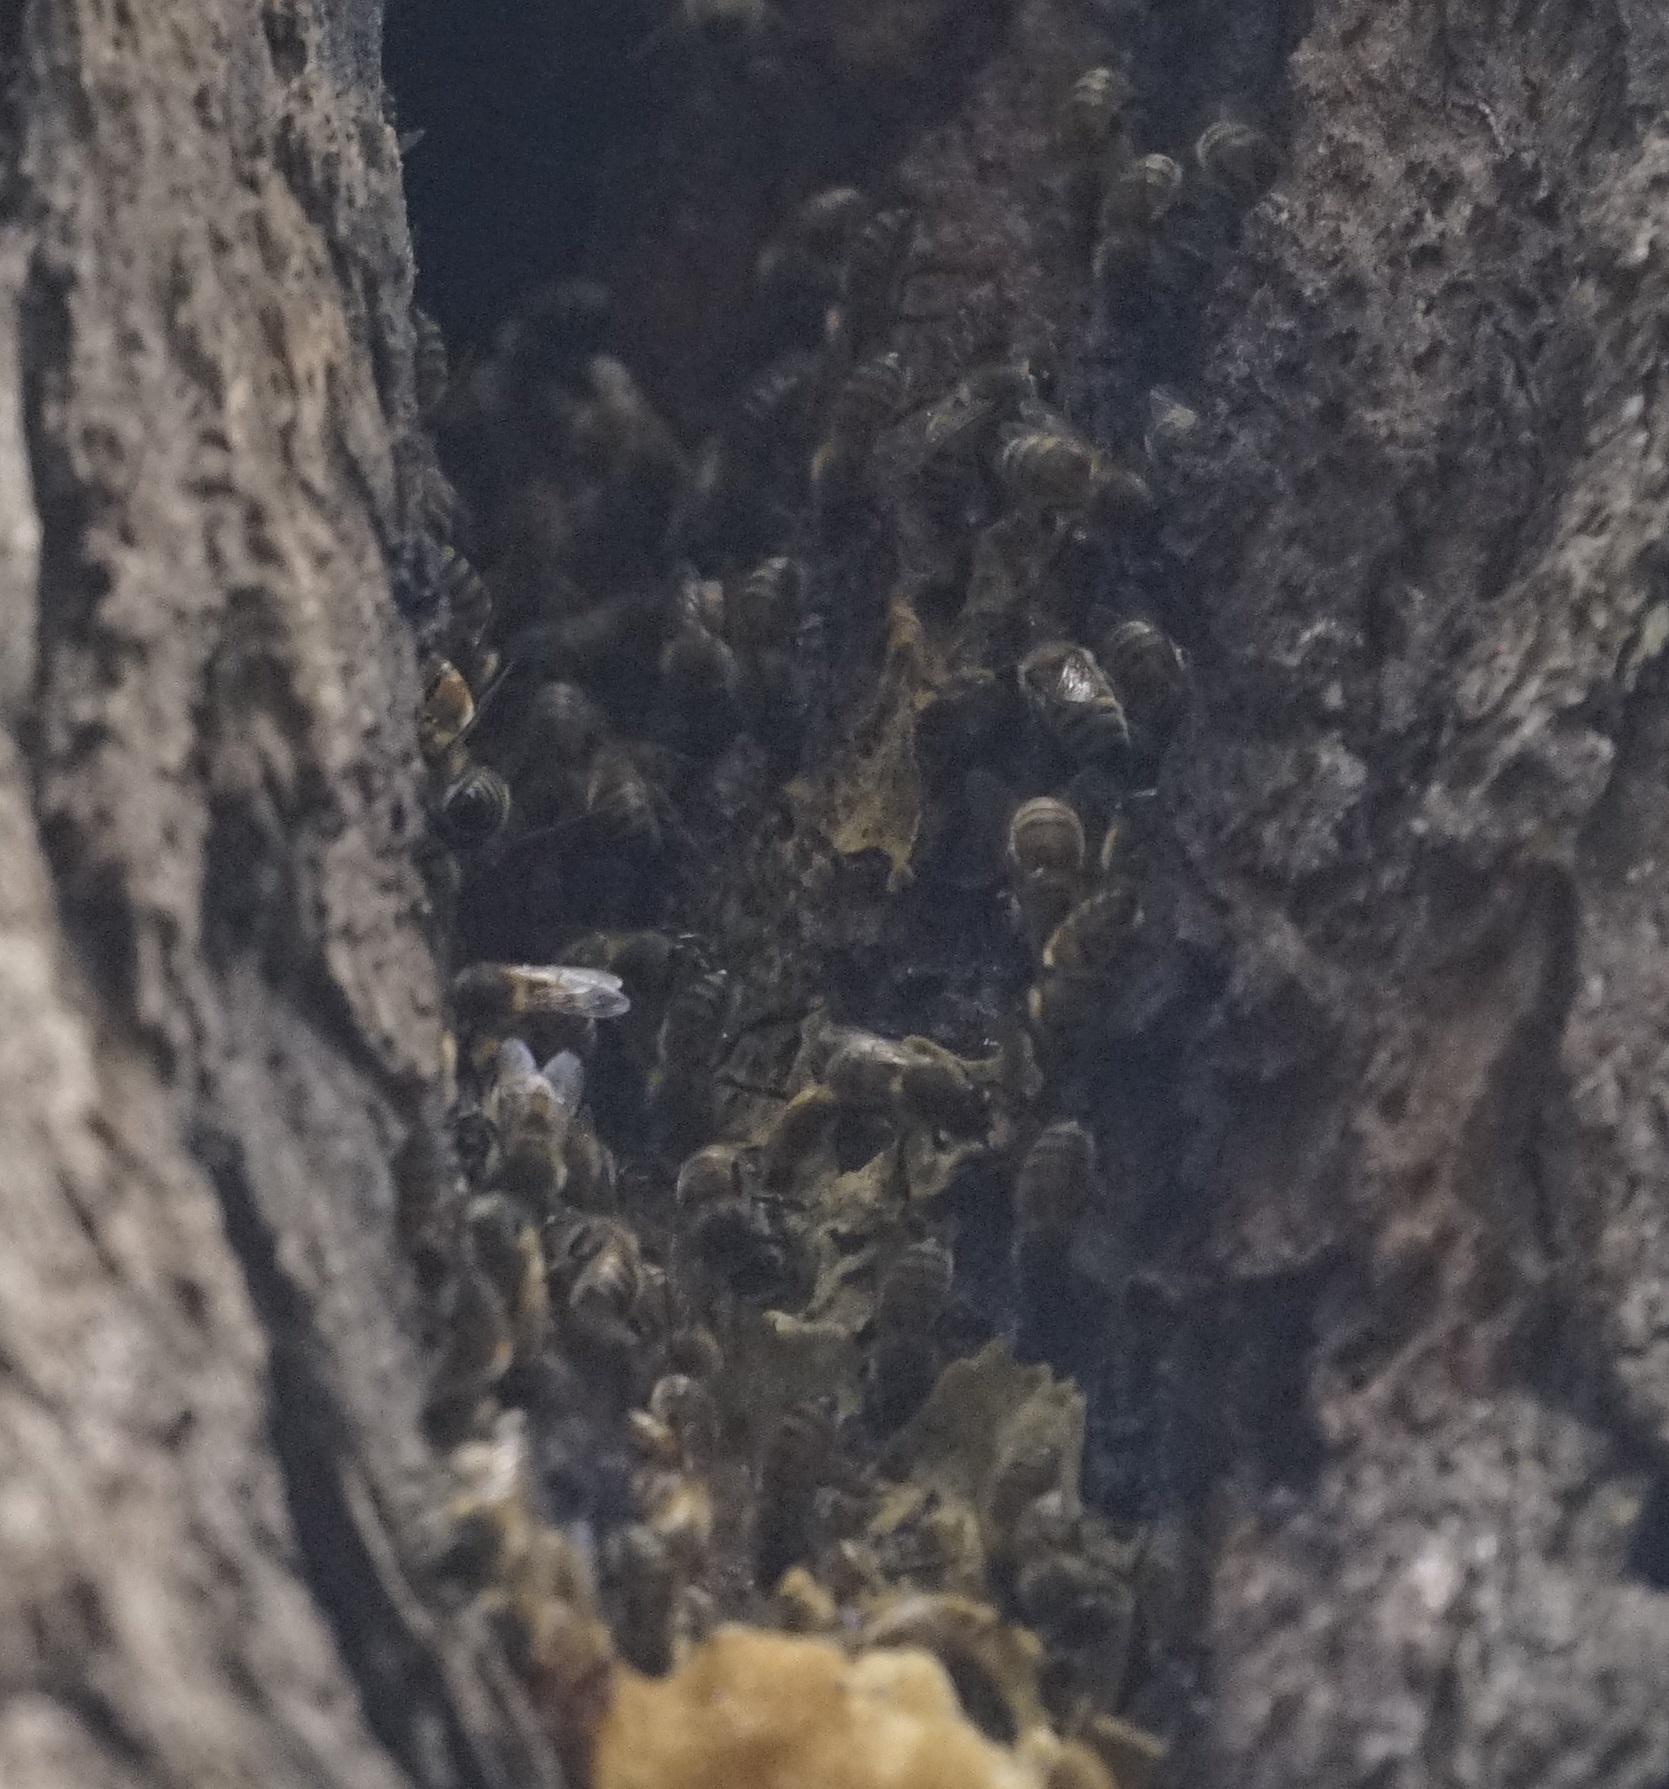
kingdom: Animalia
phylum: Arthropoda
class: Insecta
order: Hymenoptera
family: Apidae
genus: Apis
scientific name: Apis mellifera
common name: Honey bee
